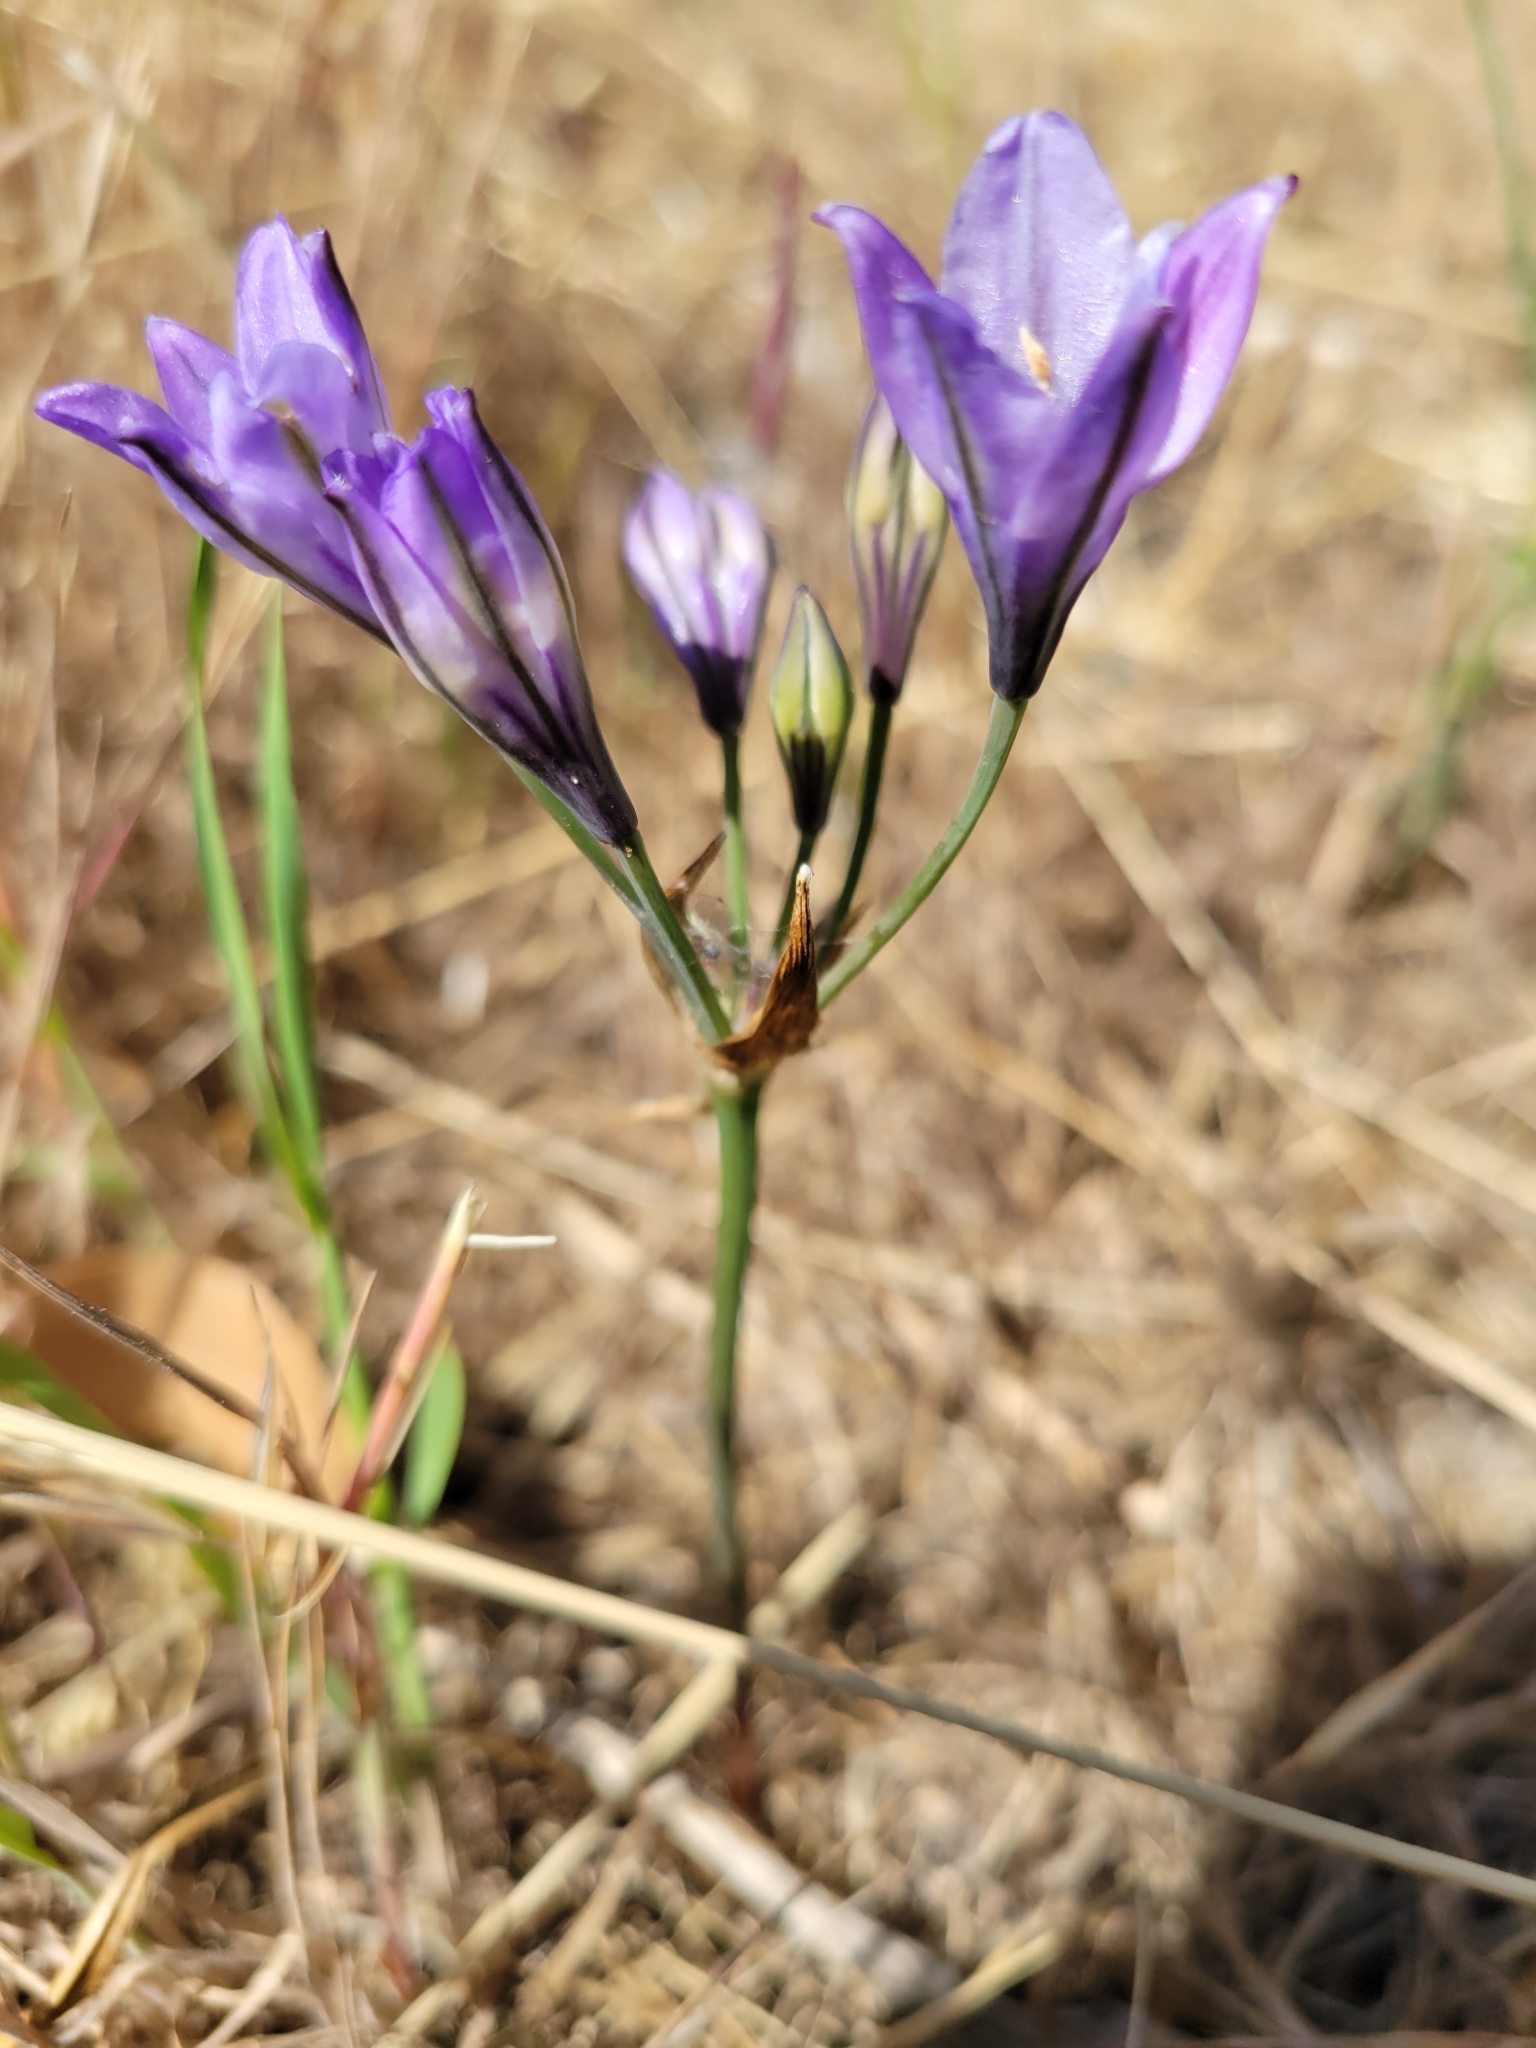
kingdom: Plantae
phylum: Tracheophyta
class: Liliopsida
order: Asparagales
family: Asparagaceae
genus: Triteleia
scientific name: Triteleia laxa
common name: Triplet-lily
